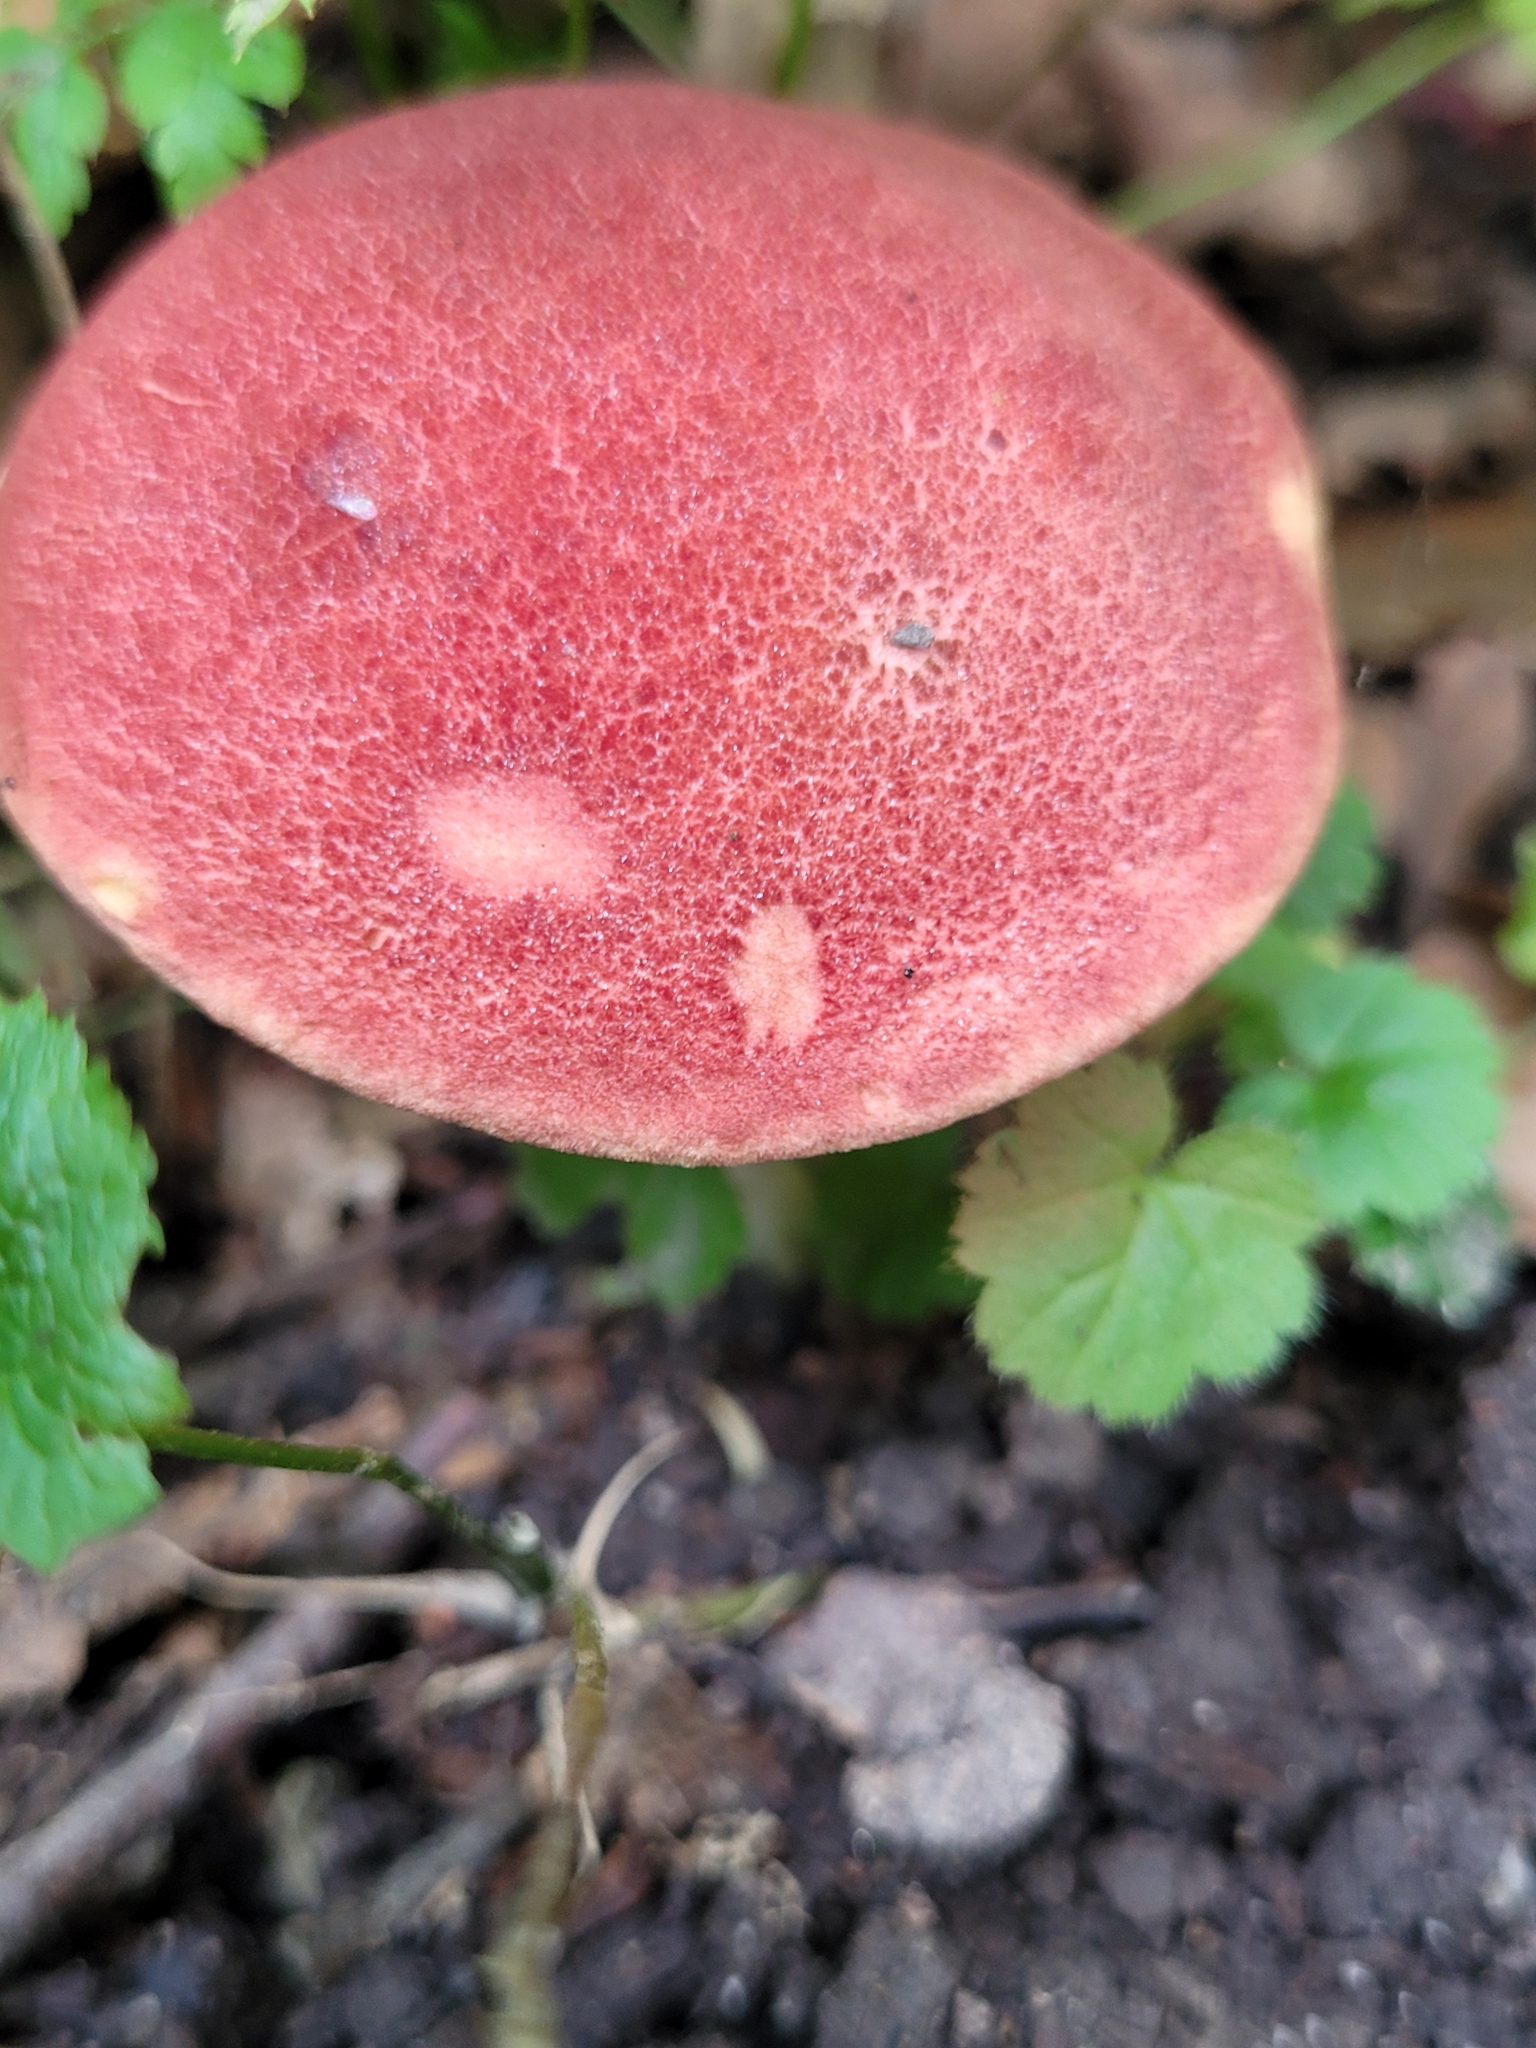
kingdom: Fungi
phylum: Basidiomycota
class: Agaricomycetes
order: Boletales
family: Boletaceae
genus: Hortiboletus
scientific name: Hortiboletus rubellus
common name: Ruby bolete
